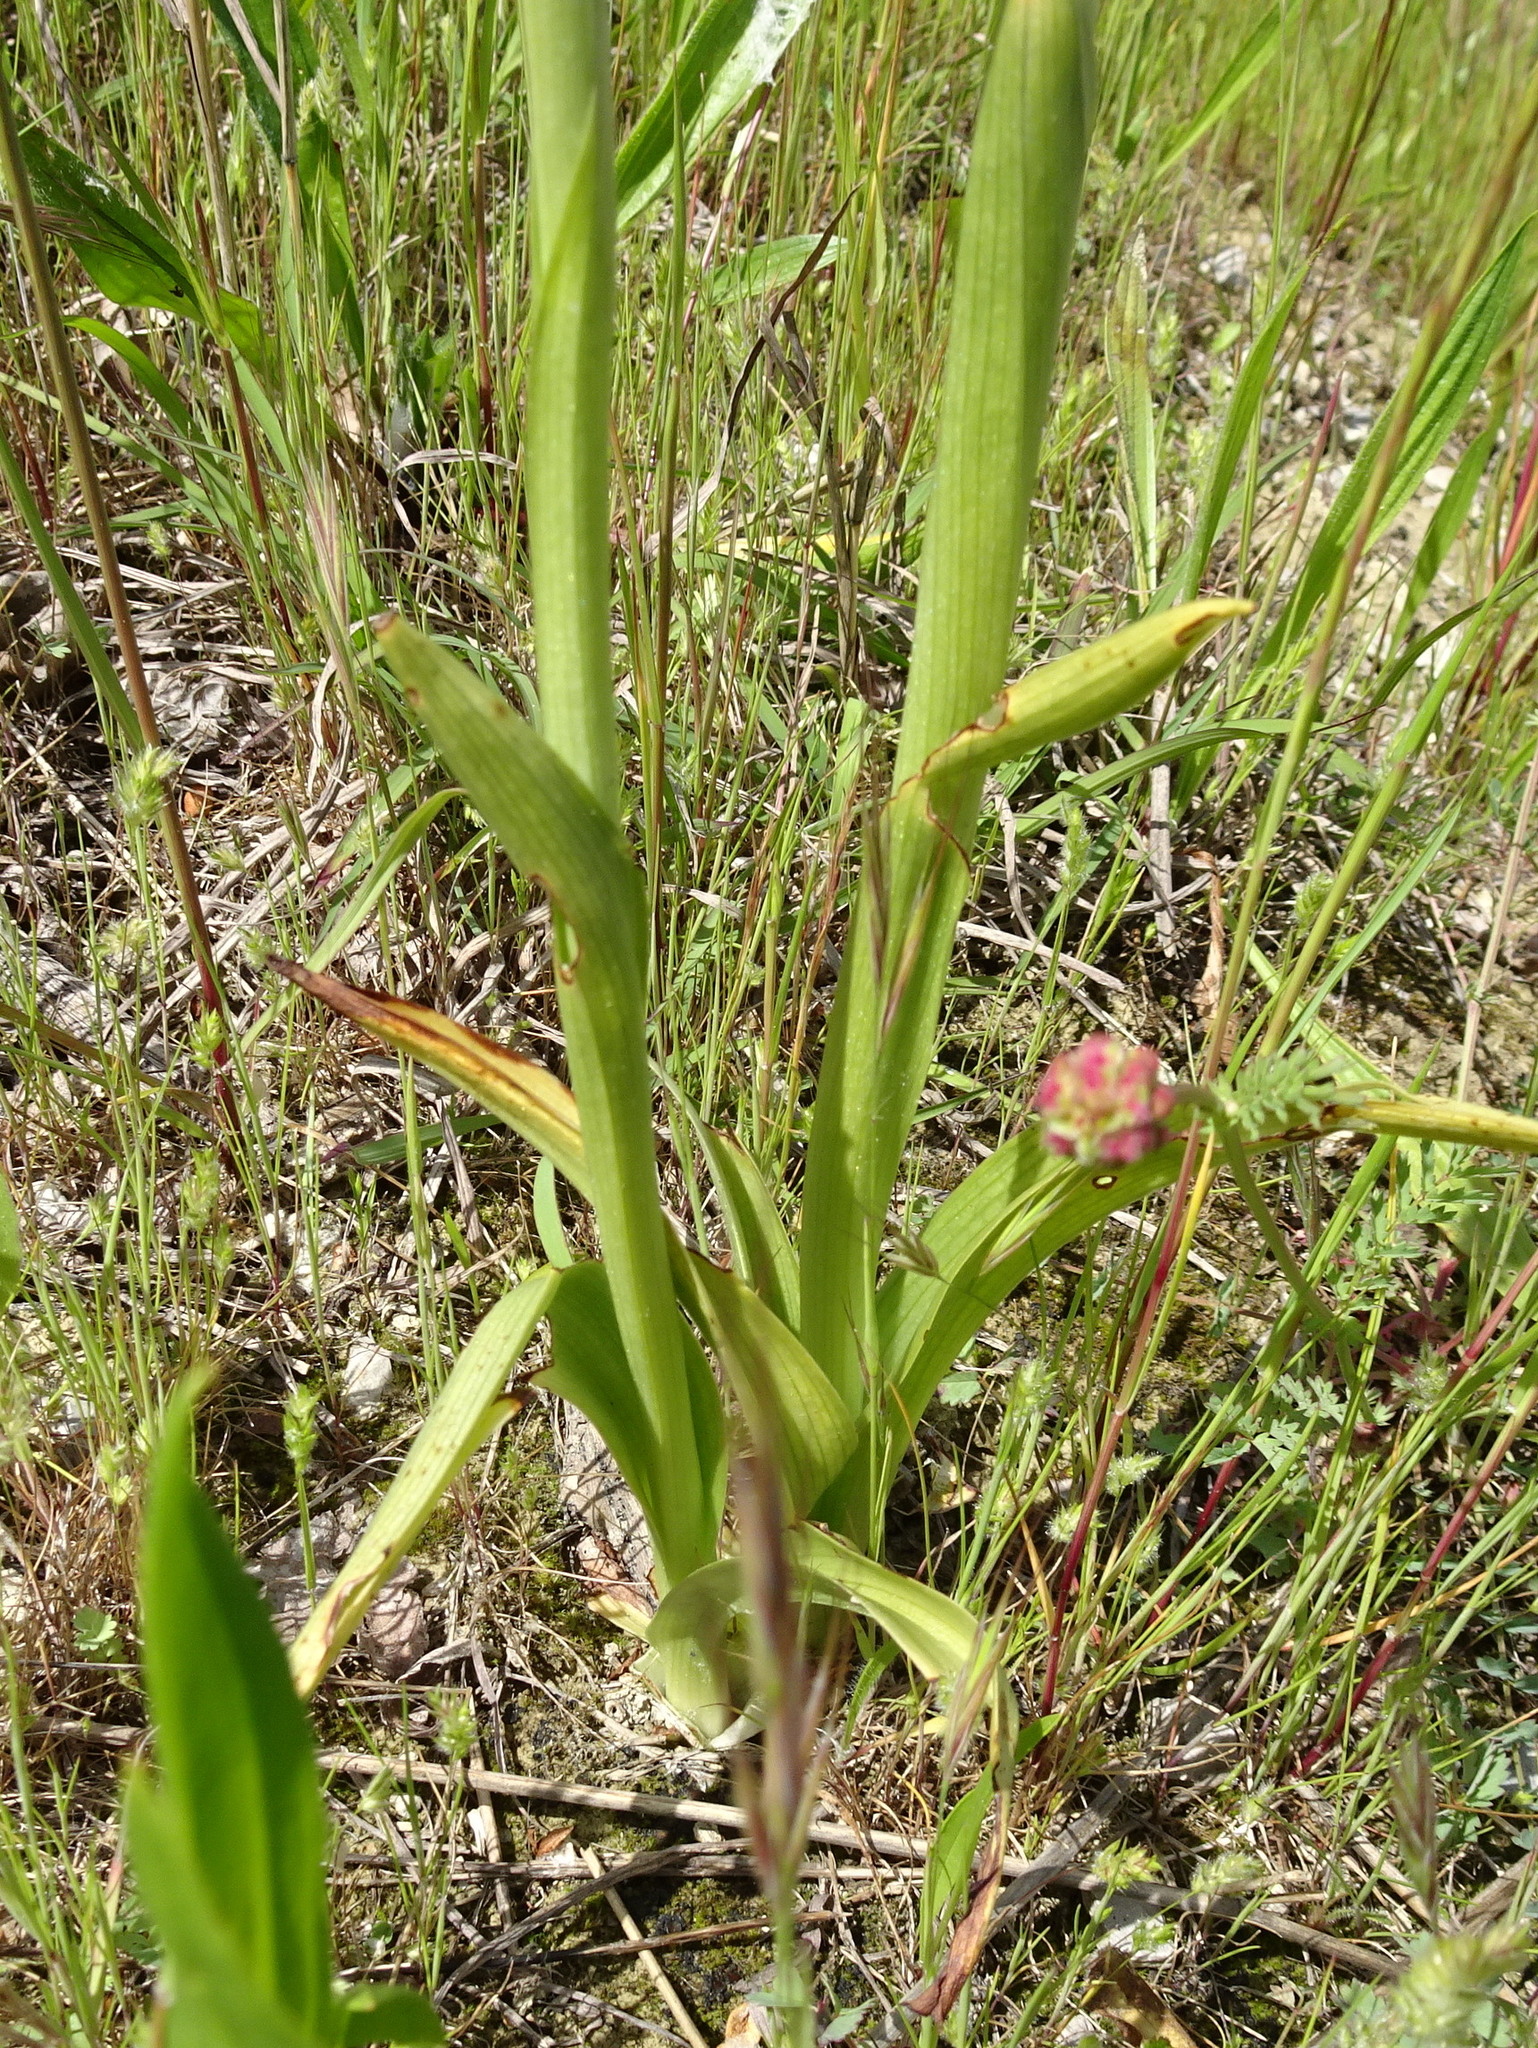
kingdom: Plantae
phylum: Tracheophyta
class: Liliopsida
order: Asparagales
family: Orchidaceae
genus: Anacamptis
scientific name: Anacamptis pyramidalis
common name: Pyramidal orchid
